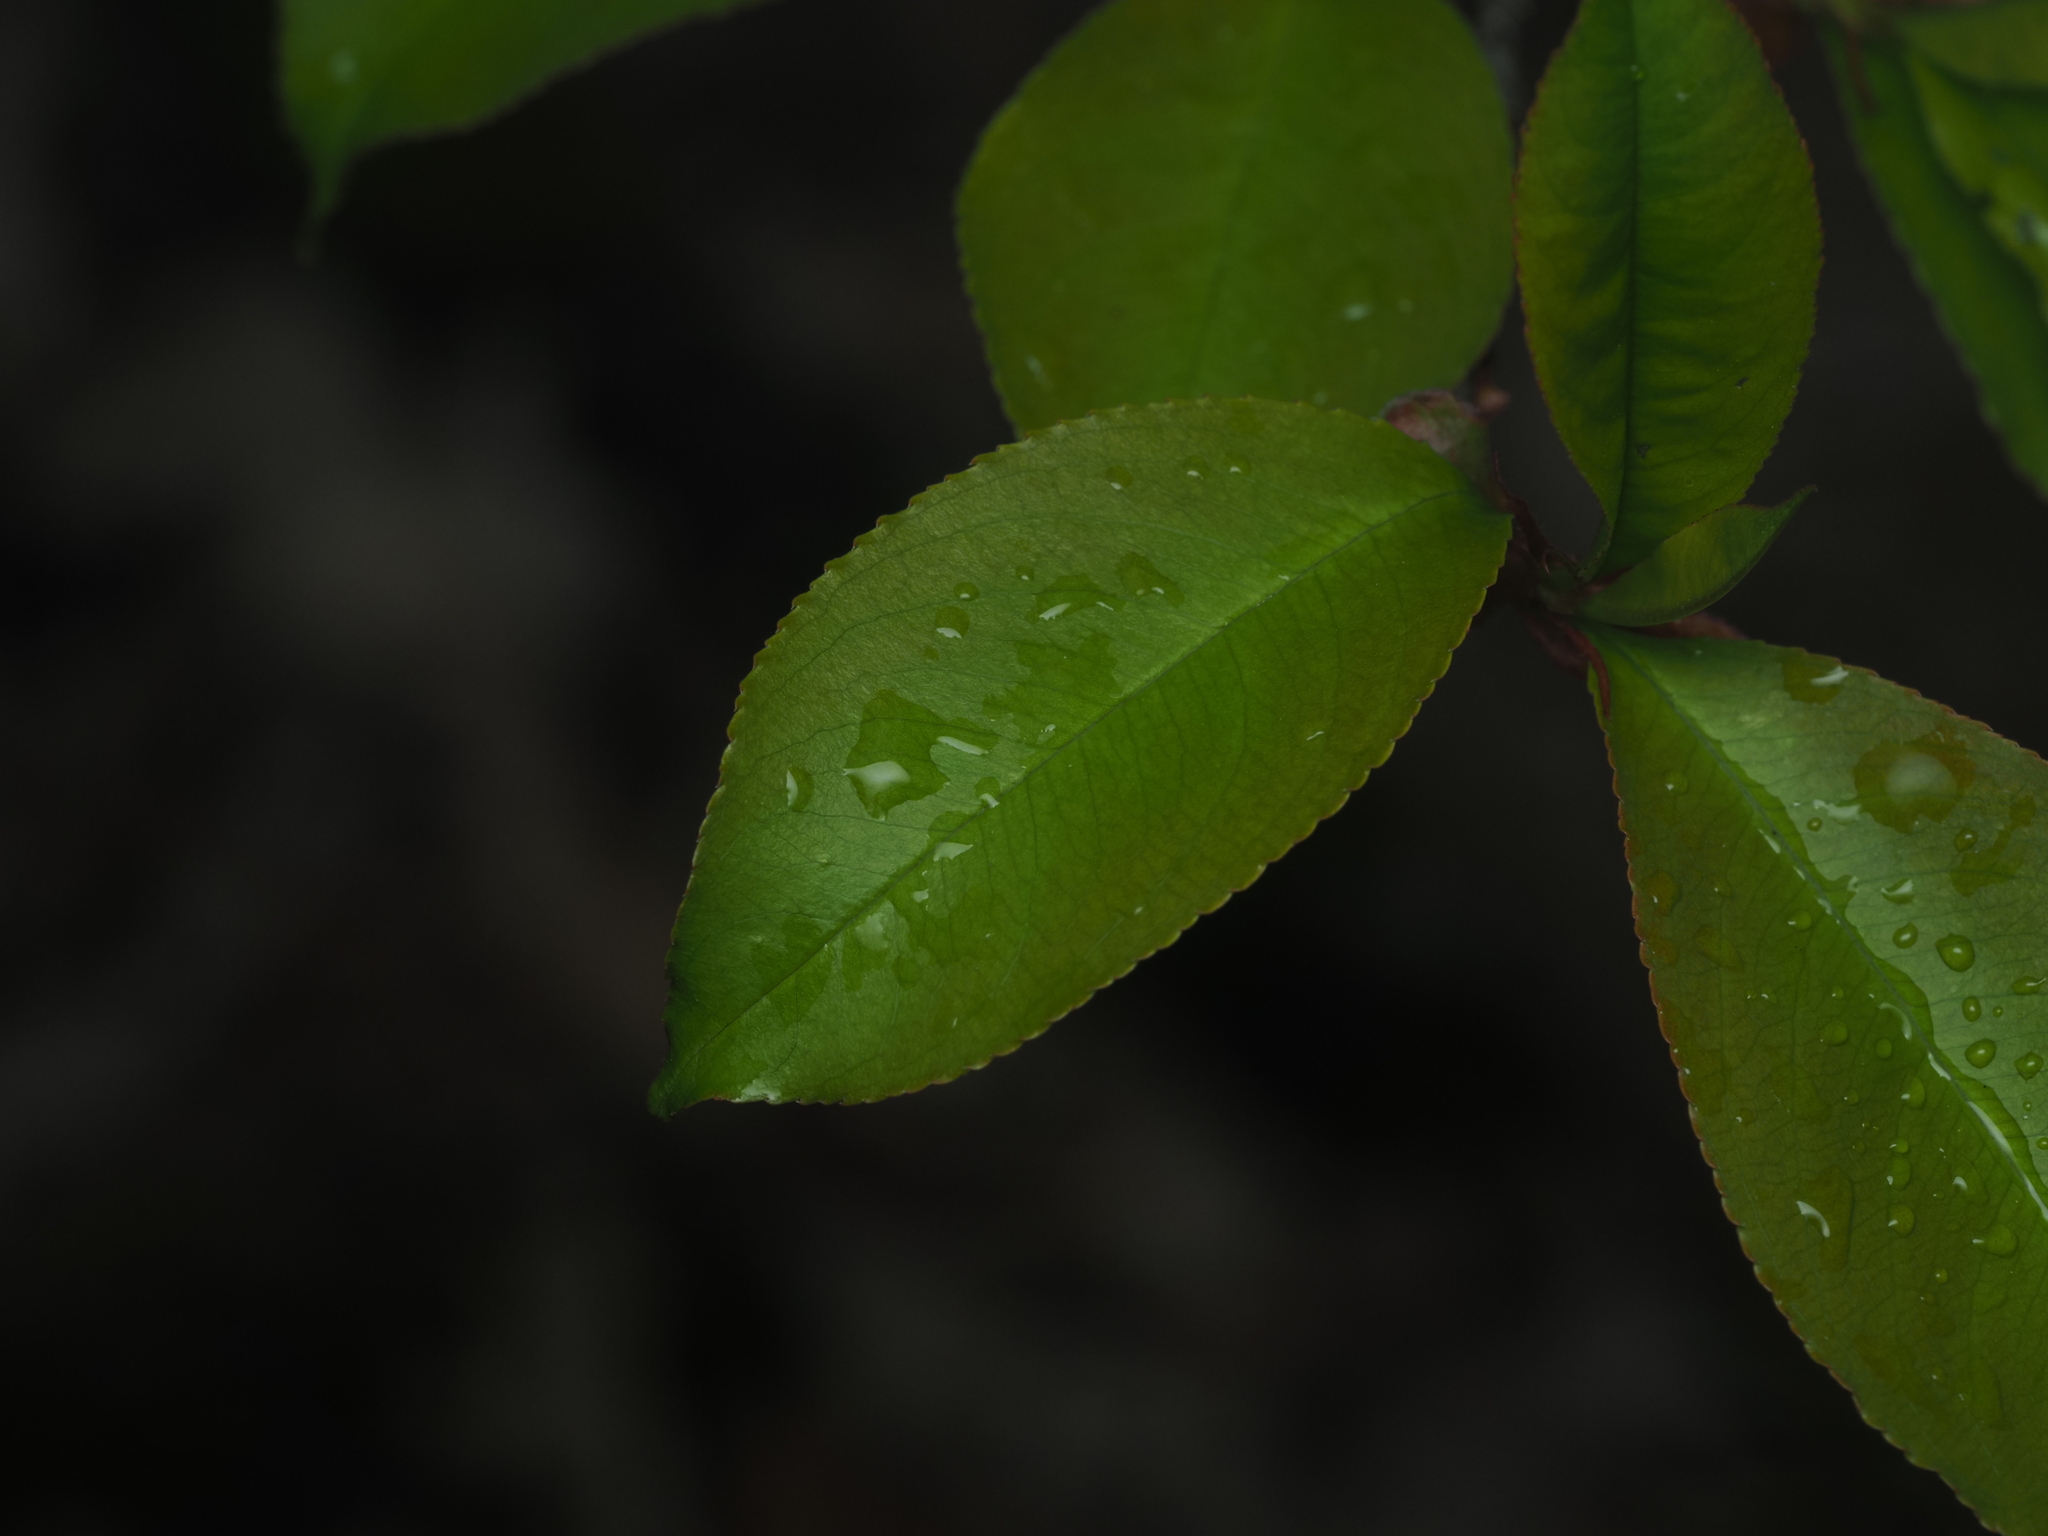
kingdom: Plantae
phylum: Tracheophyta
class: Magnoliopsida
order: Rosales
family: Rosaceae
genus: Prunus
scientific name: Prunus serotina
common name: Black cherry
